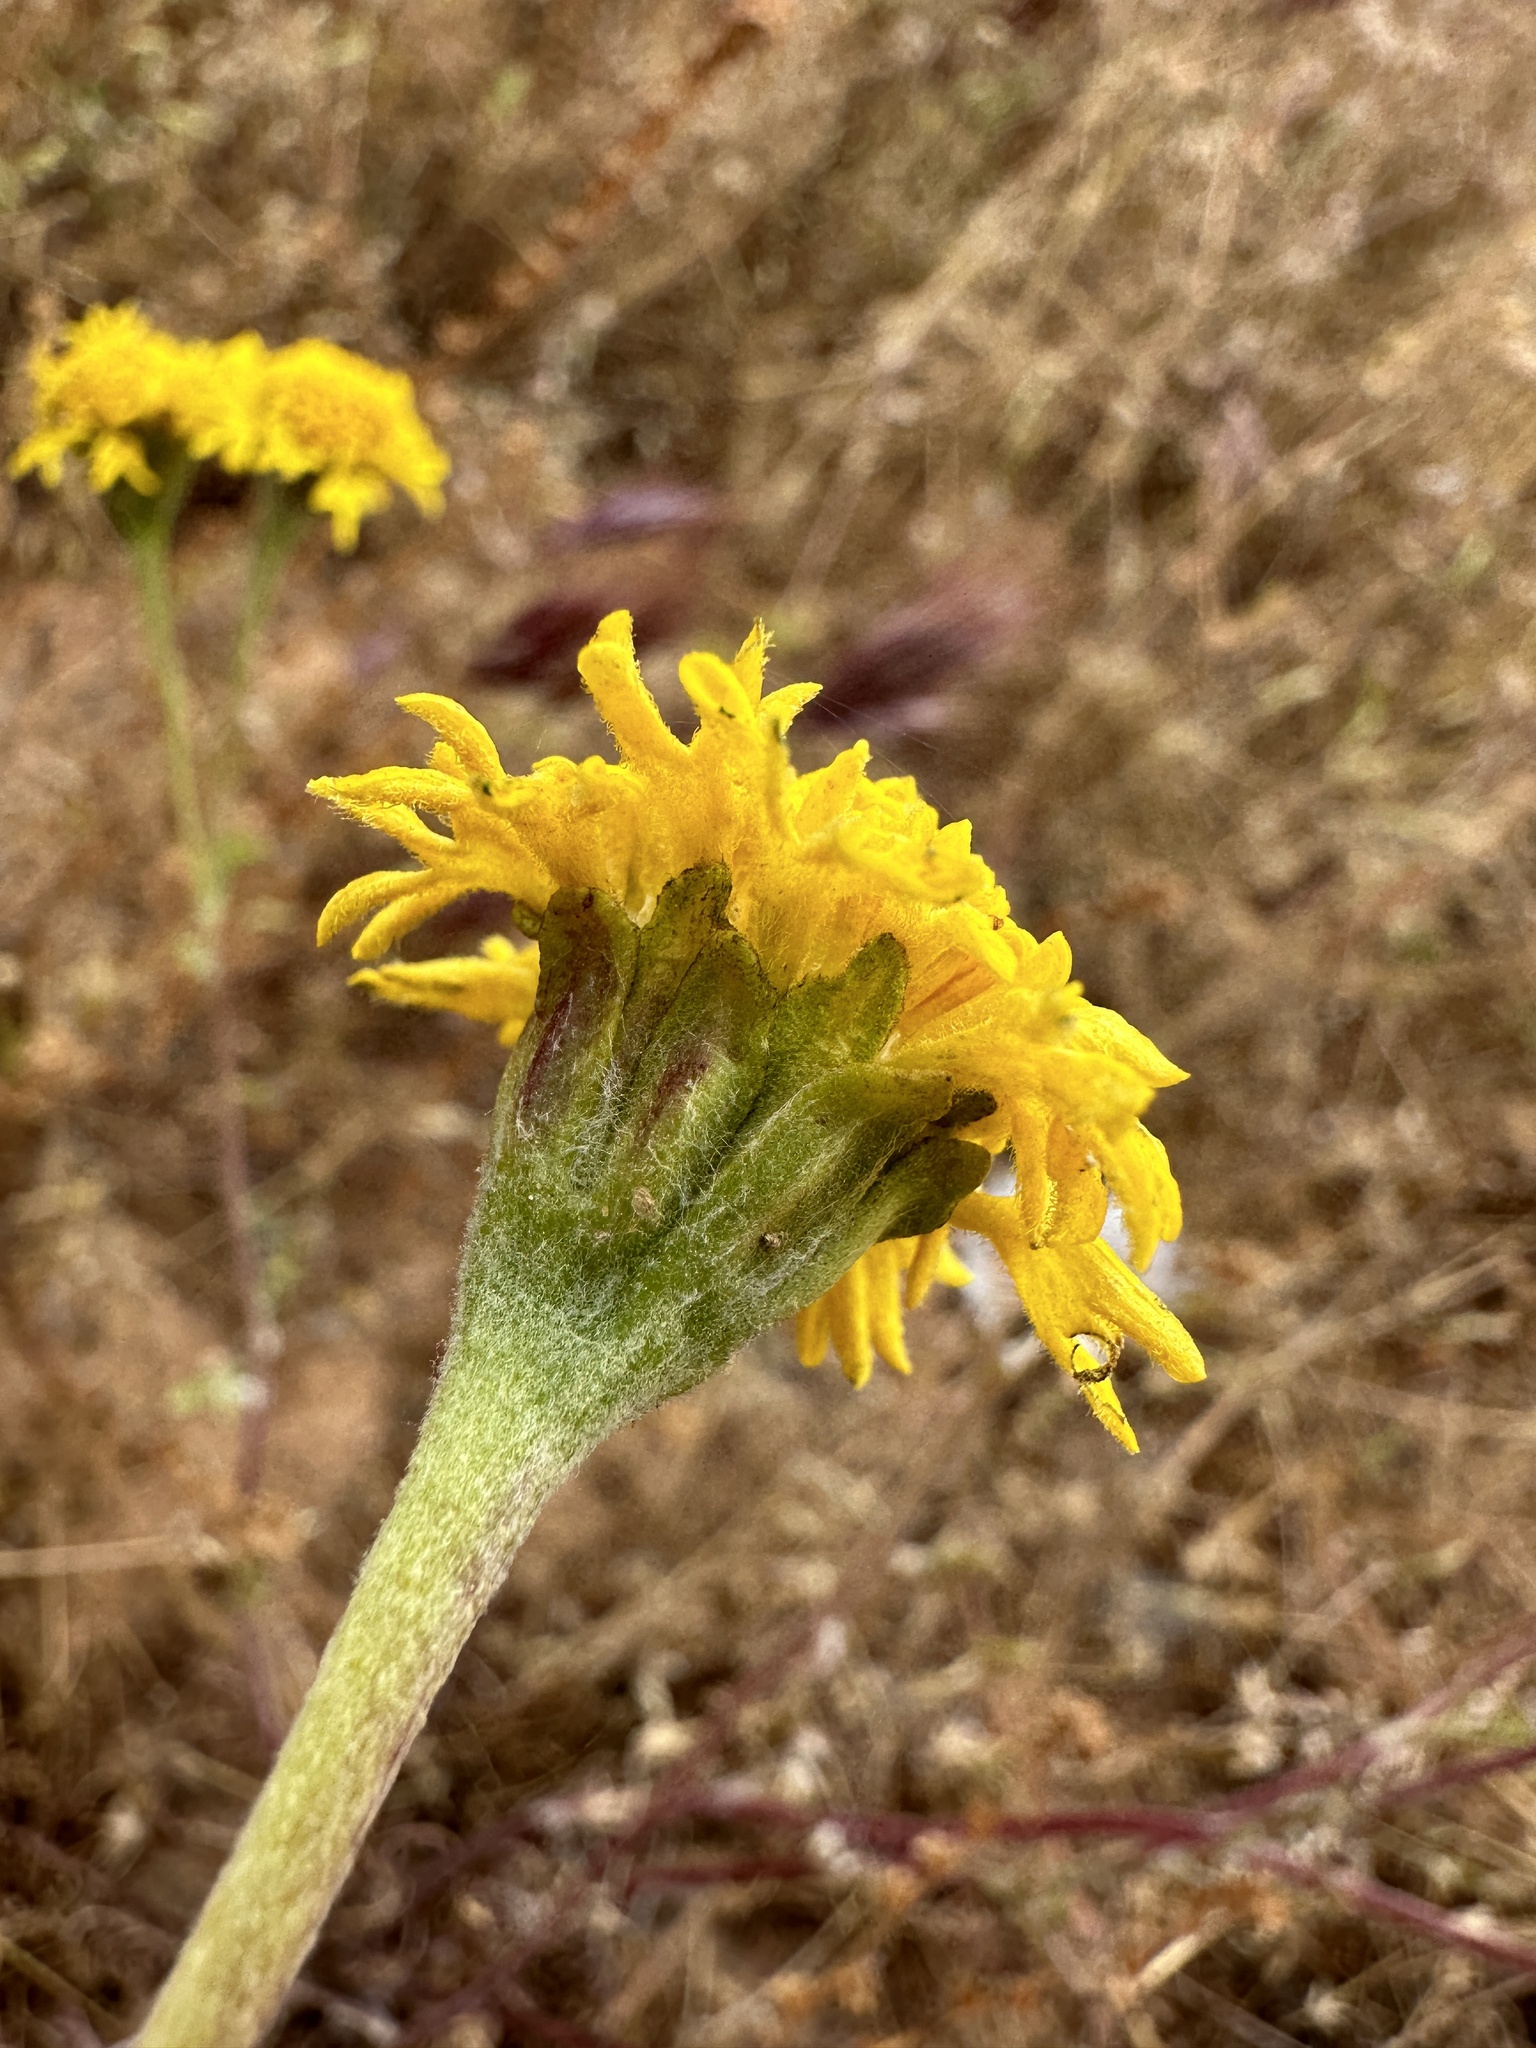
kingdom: Plantae
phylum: Tracheophyta
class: Magnoliopsida
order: Asterales
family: Asteraceae
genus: Chaenactis
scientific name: Chaenactis glabriuscula
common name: Yellow pincushion
